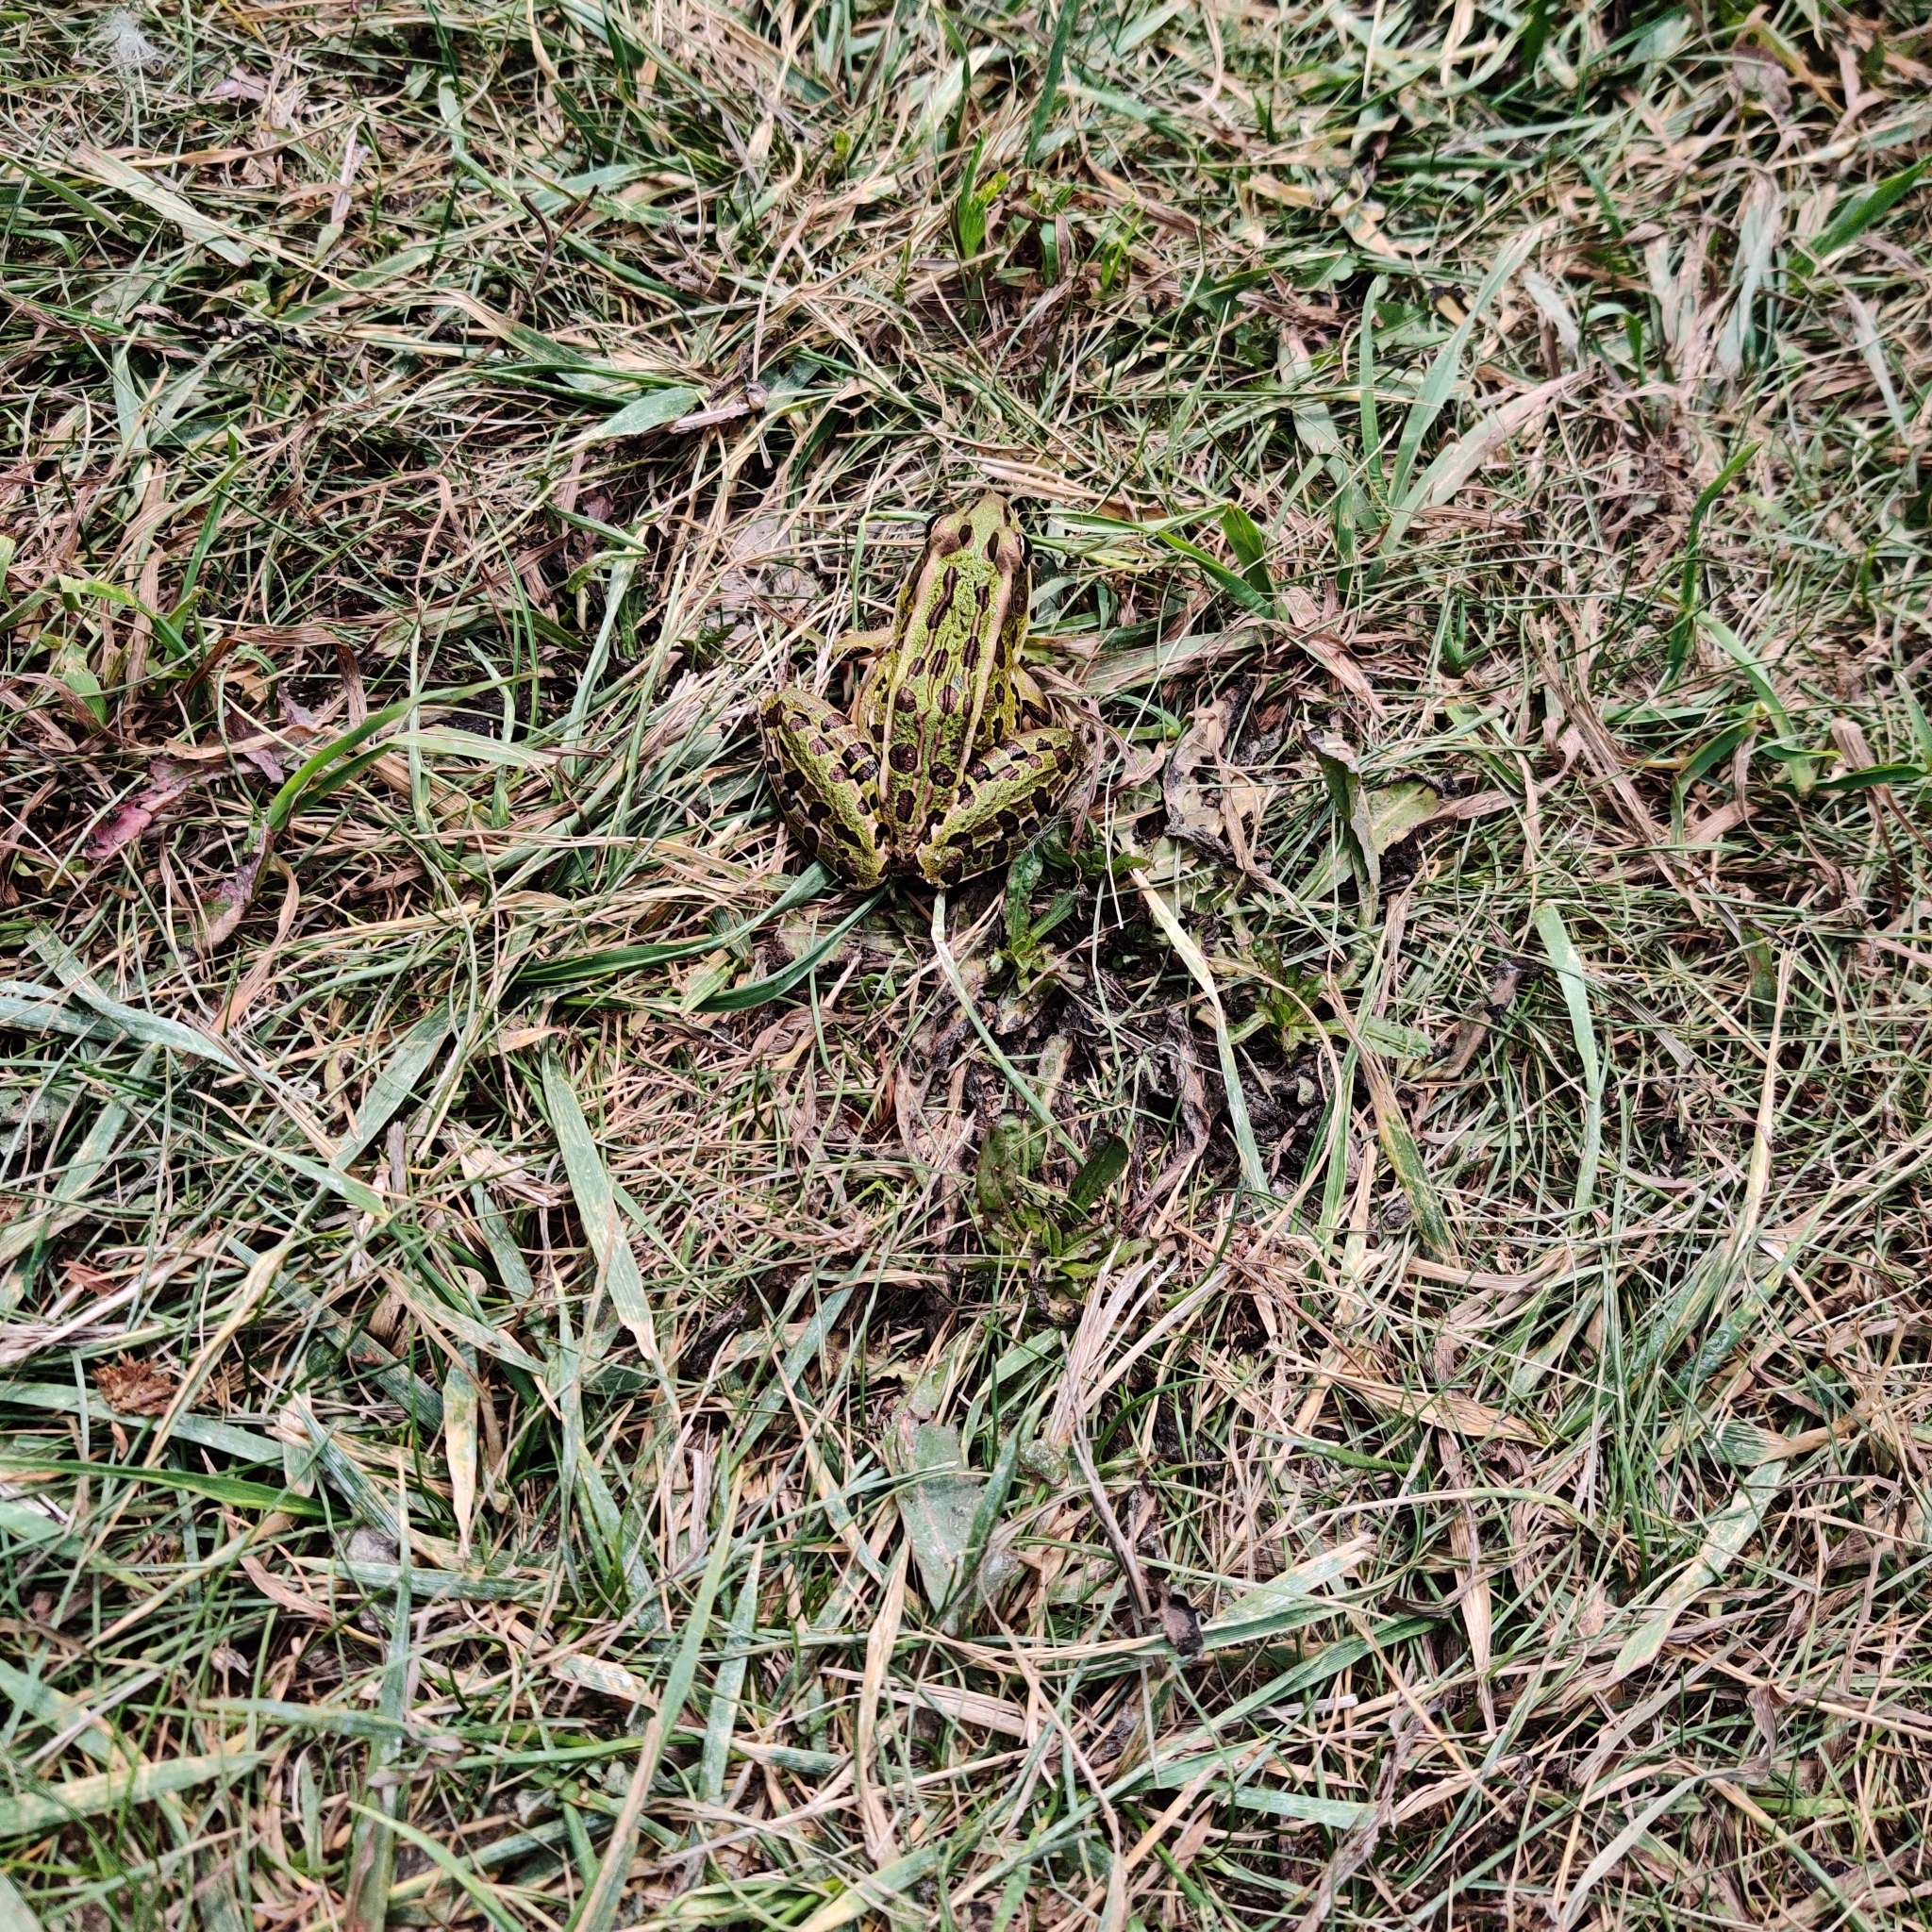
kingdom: Animalia
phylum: Chordata
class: Amphibia
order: Anura
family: Ranidae
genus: Lithobates
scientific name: Lithobates pipiens
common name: Northern leopard frog
